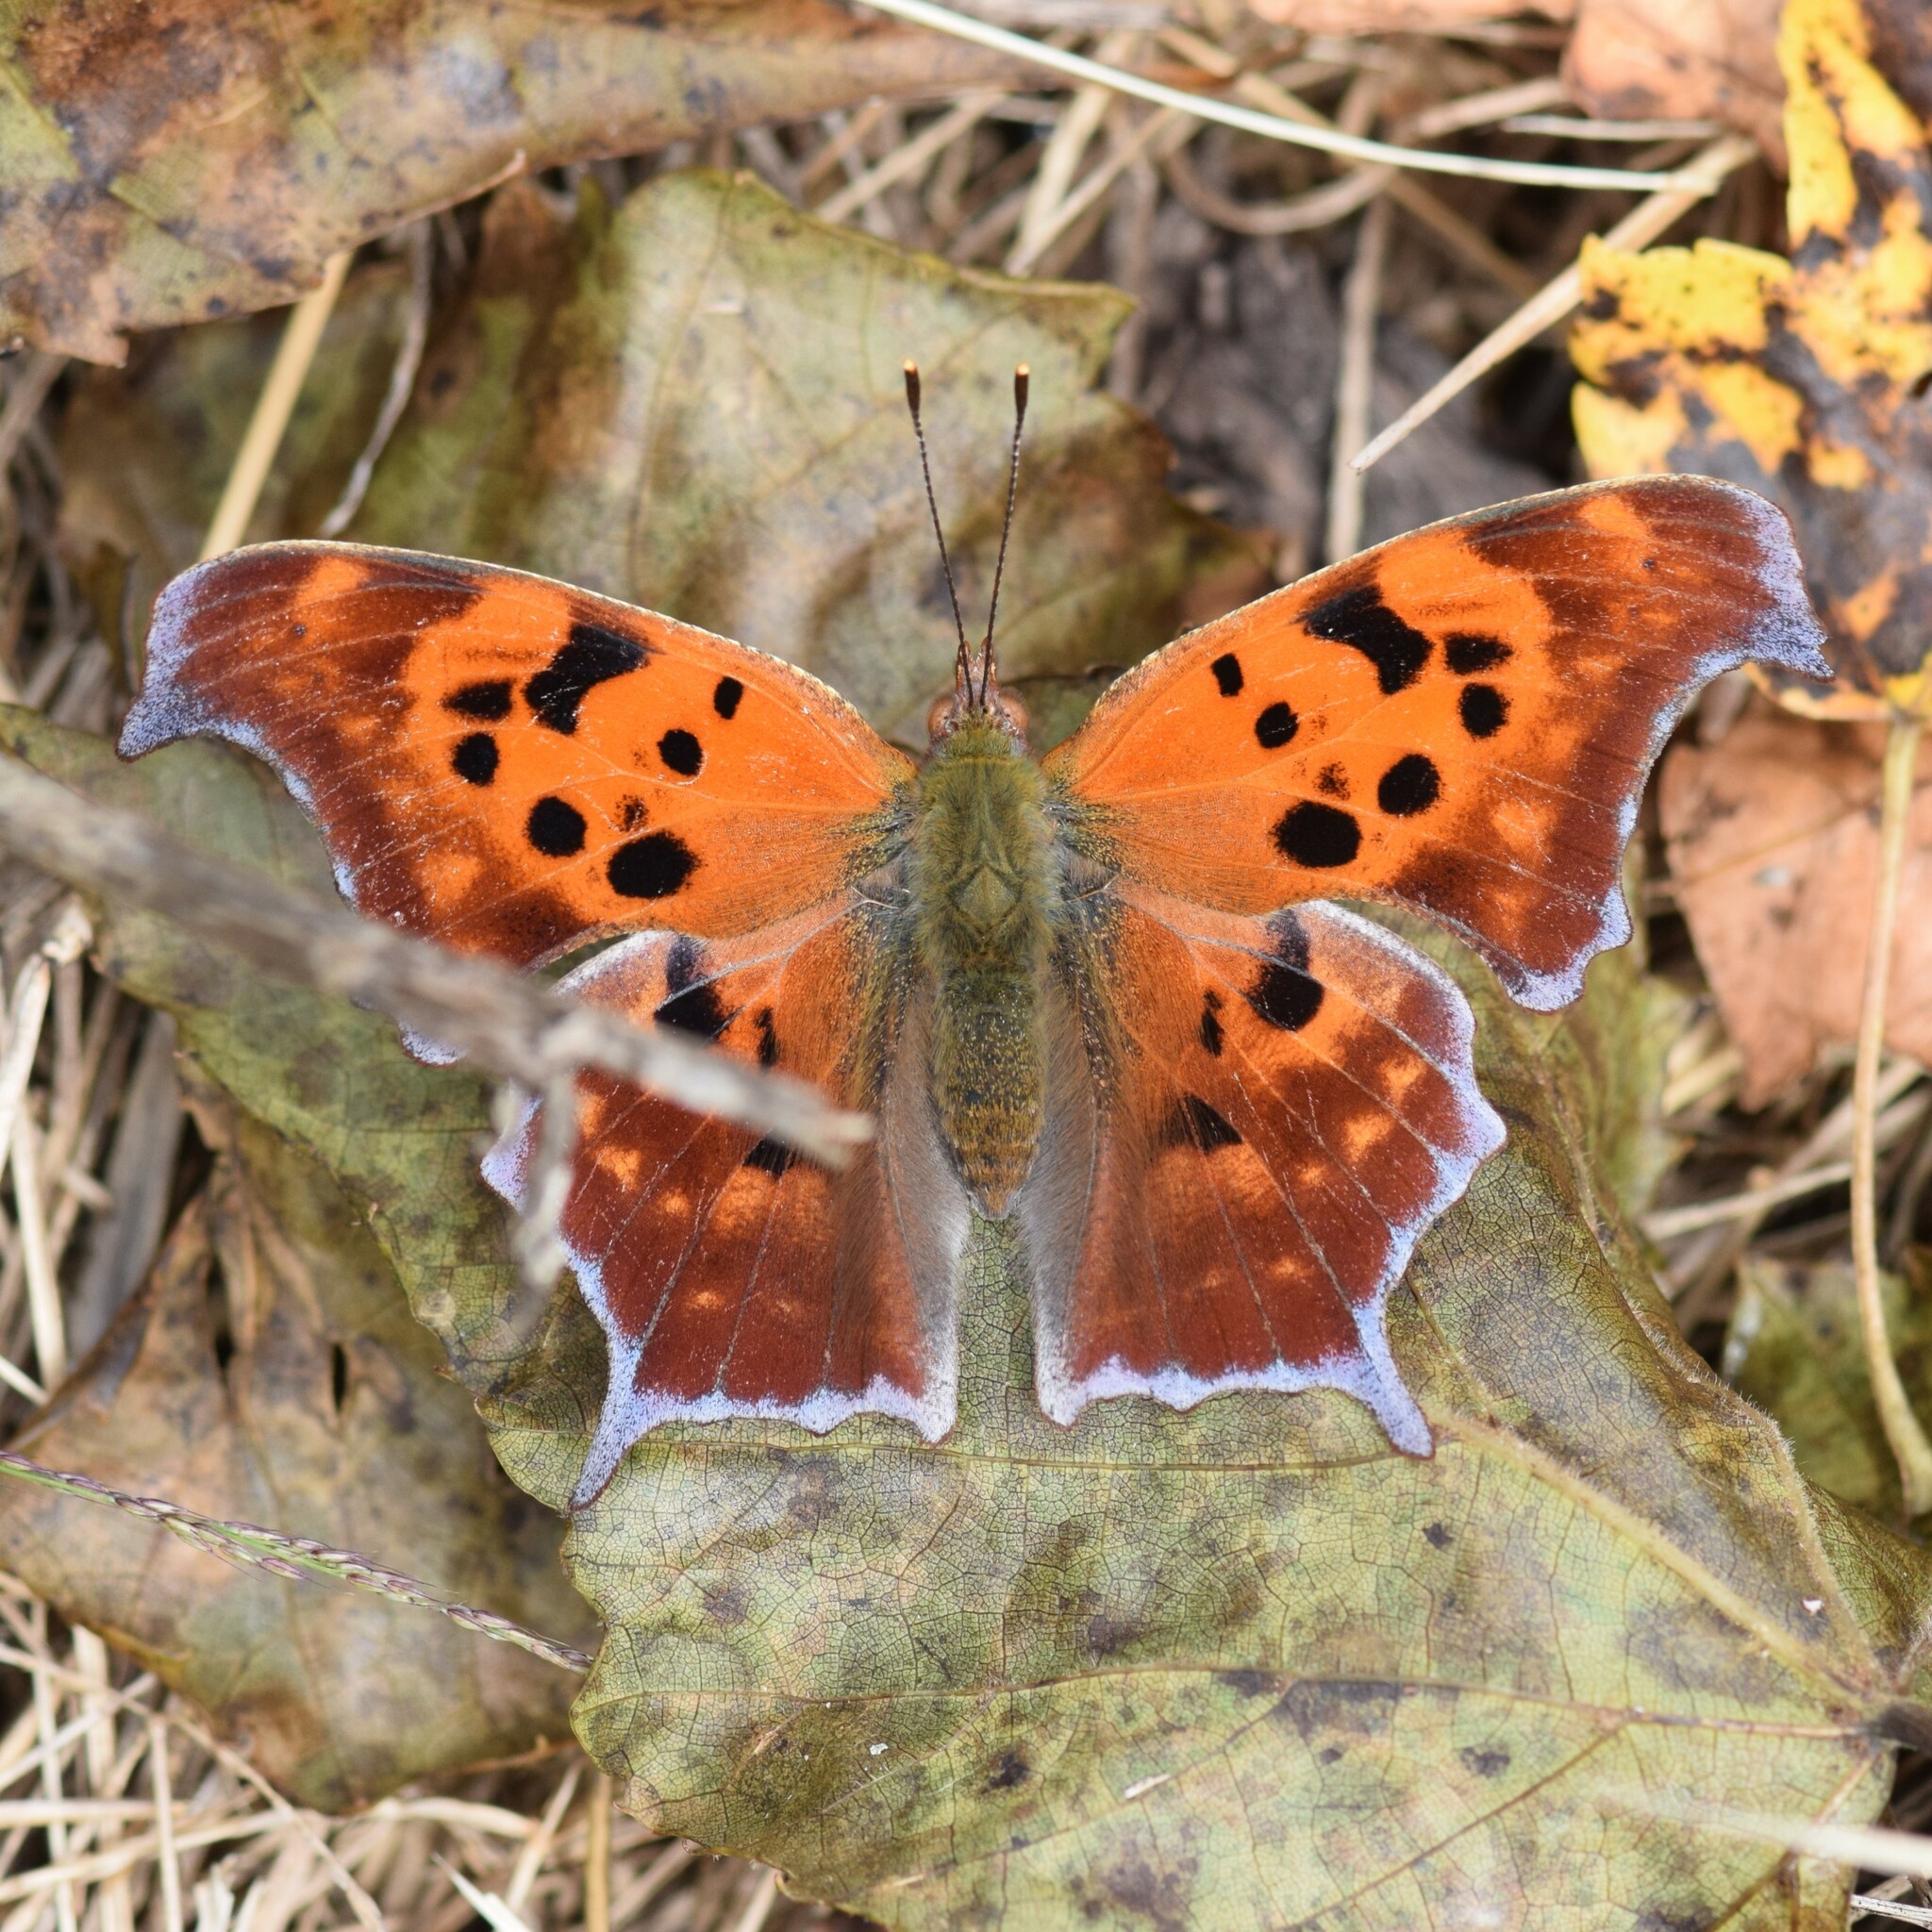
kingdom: Animalia
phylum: Arthropoda
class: Insecta
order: Lepidoptera
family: Nymphalidae
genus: Polygonia
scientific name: Polygonia interrogationis
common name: Question mark
